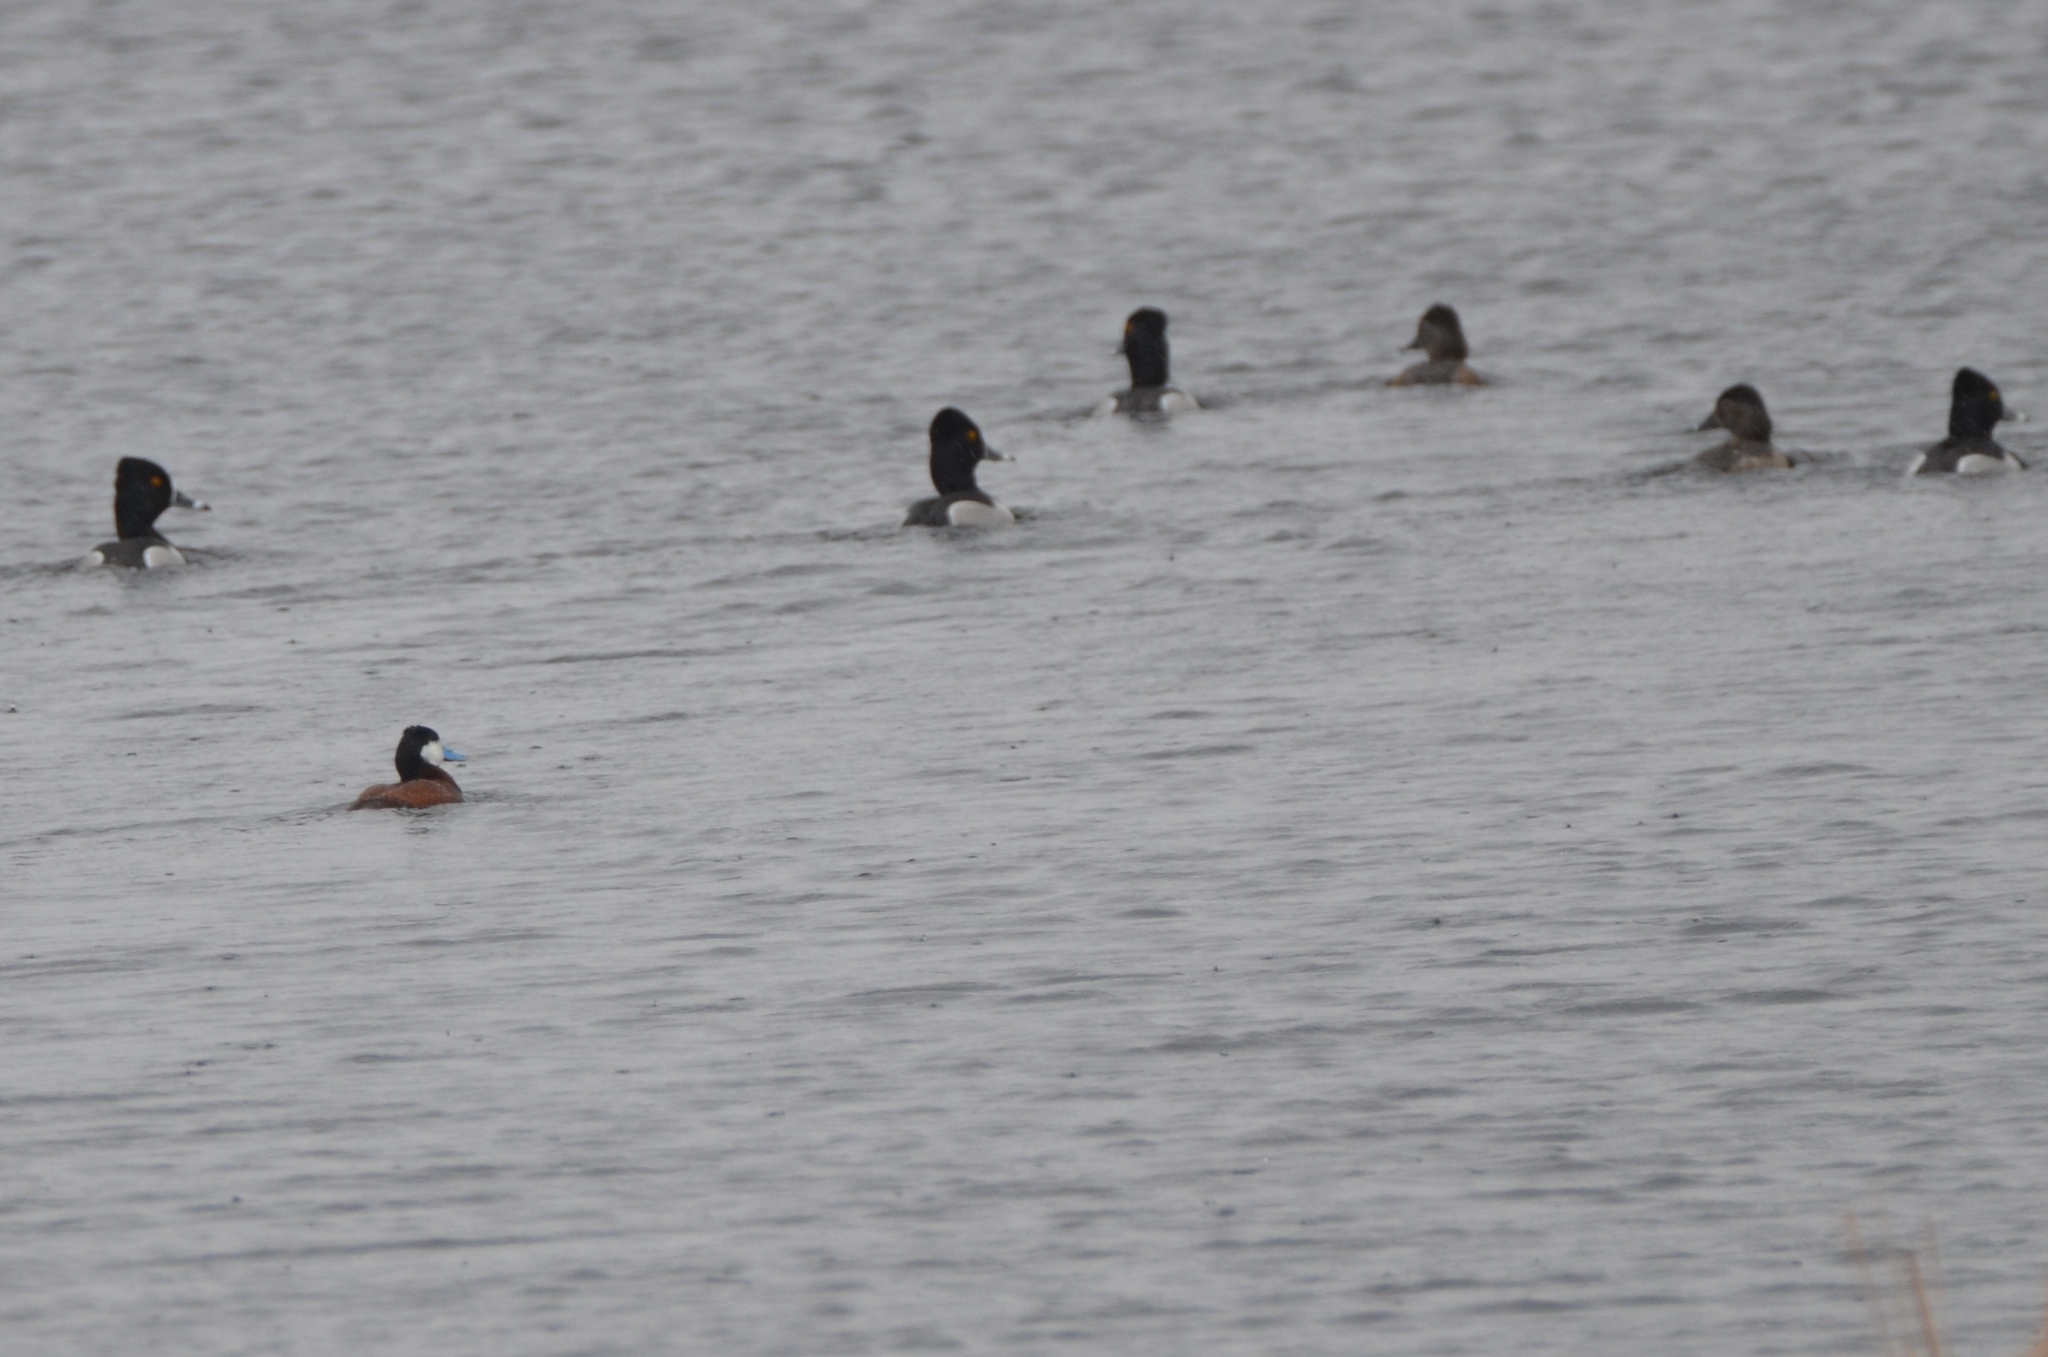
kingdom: Animalia
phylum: Chordata
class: Aves
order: Anseriformes
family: Anatidae
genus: Oxyura
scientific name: Oxyura jamaicensis
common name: Ruddy duck
